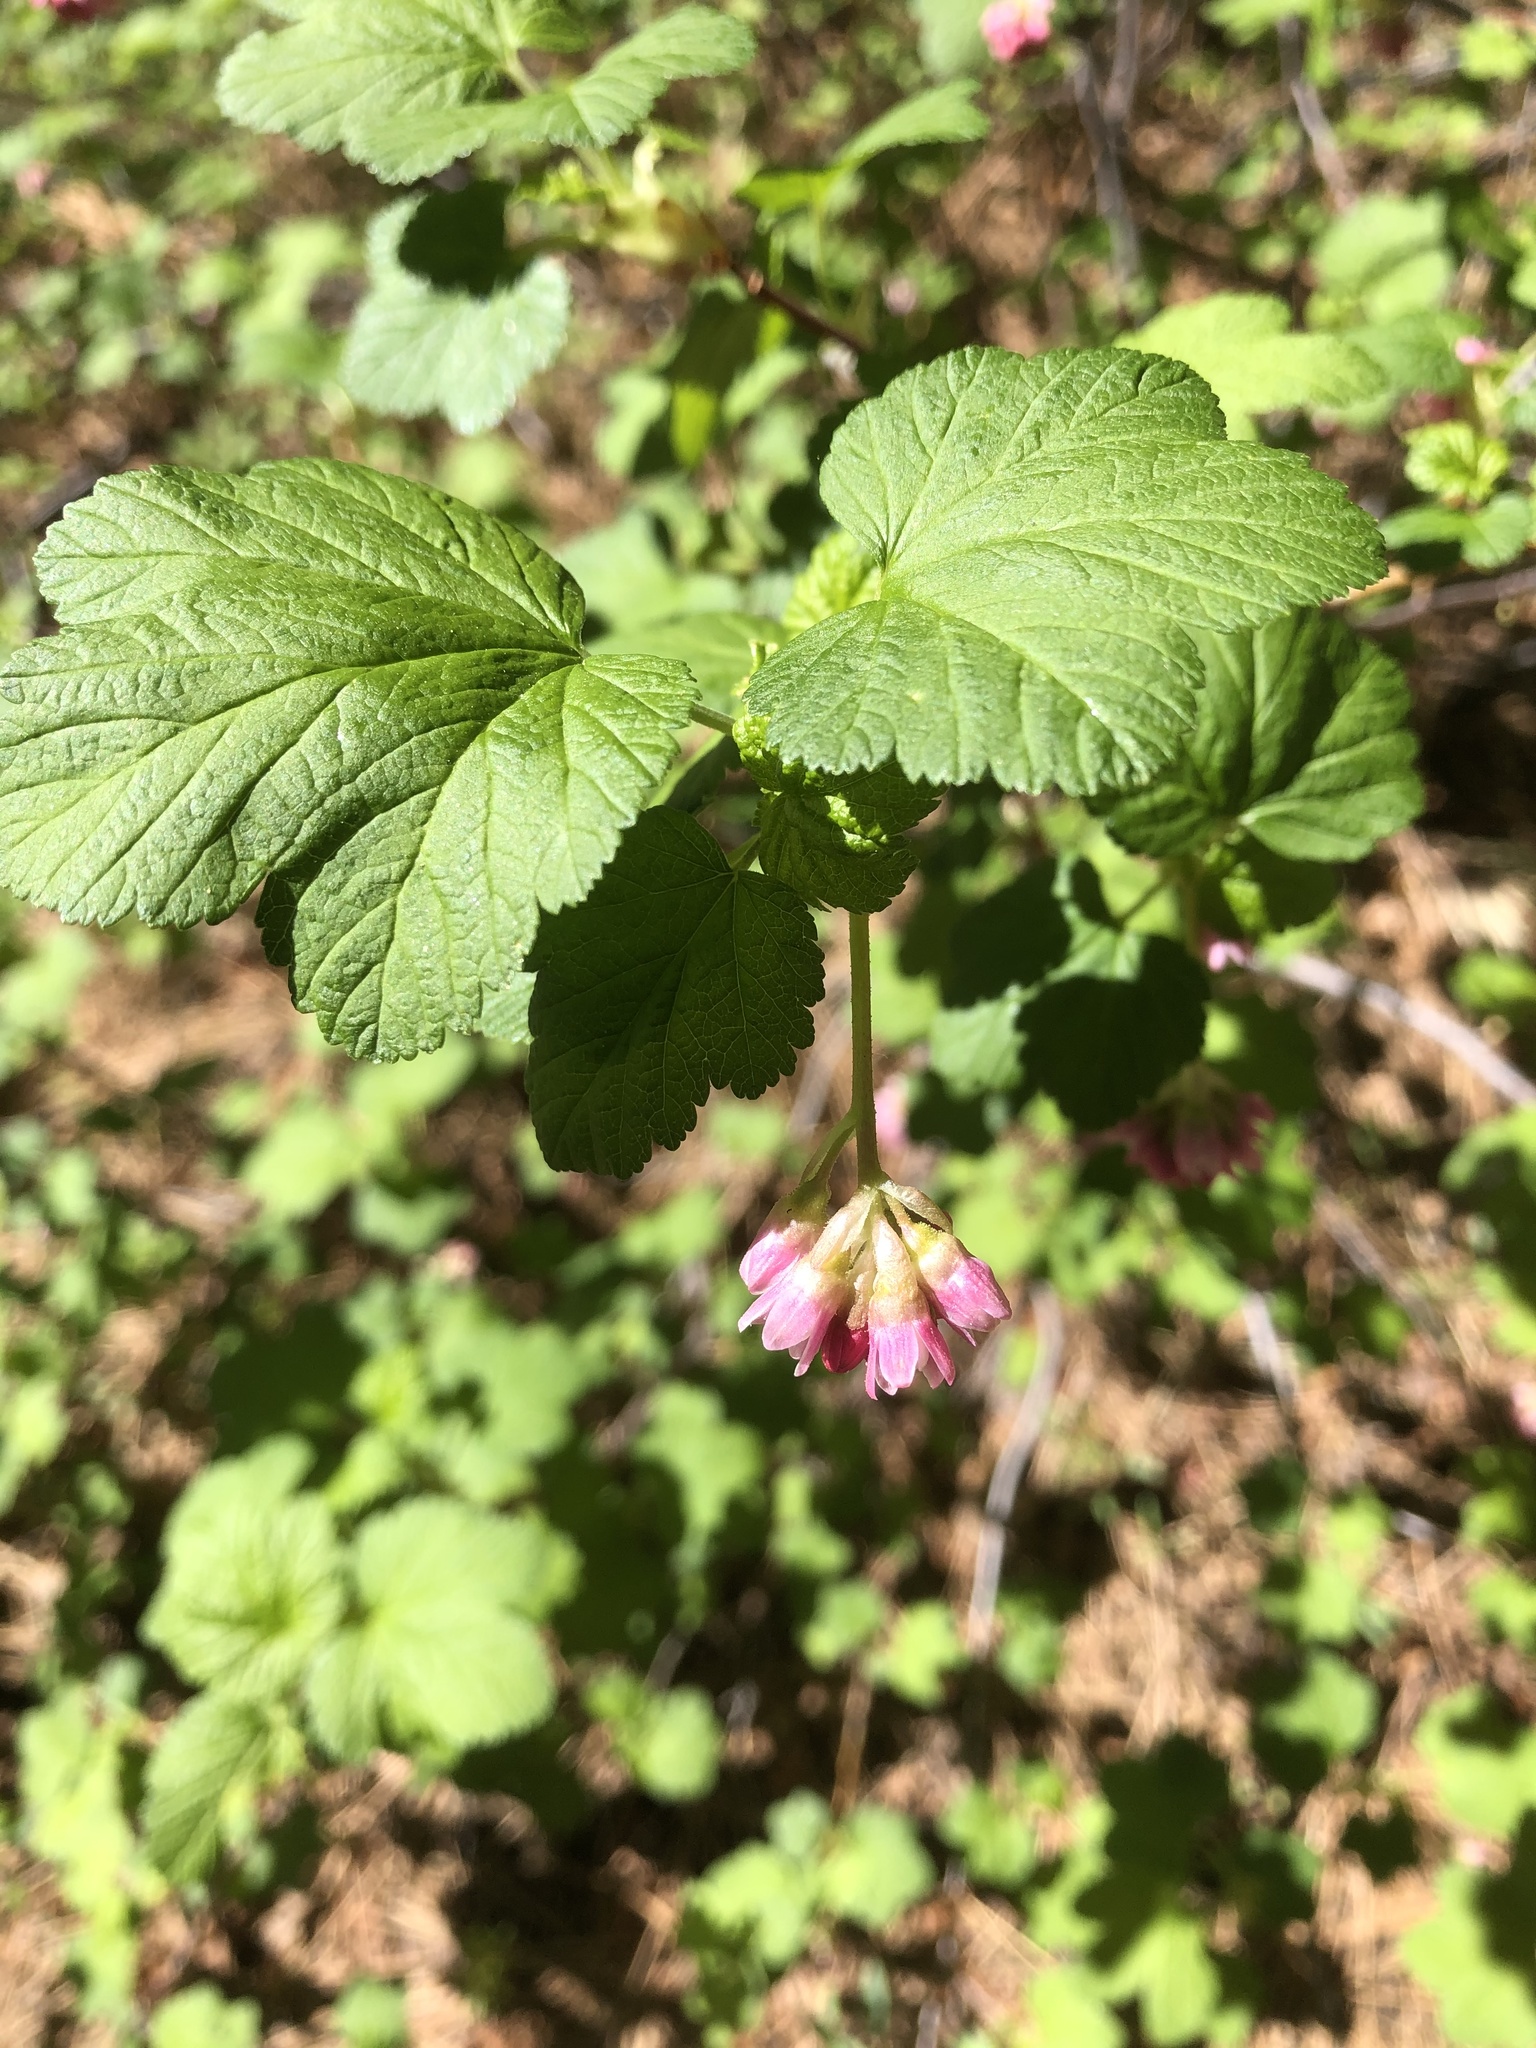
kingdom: Plantae
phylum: Tracheophyta
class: Magnoliopsida
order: Saxifragales
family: Grossulariaceae
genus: Ribes
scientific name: Ribes nevadense
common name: Mountain pink currant
